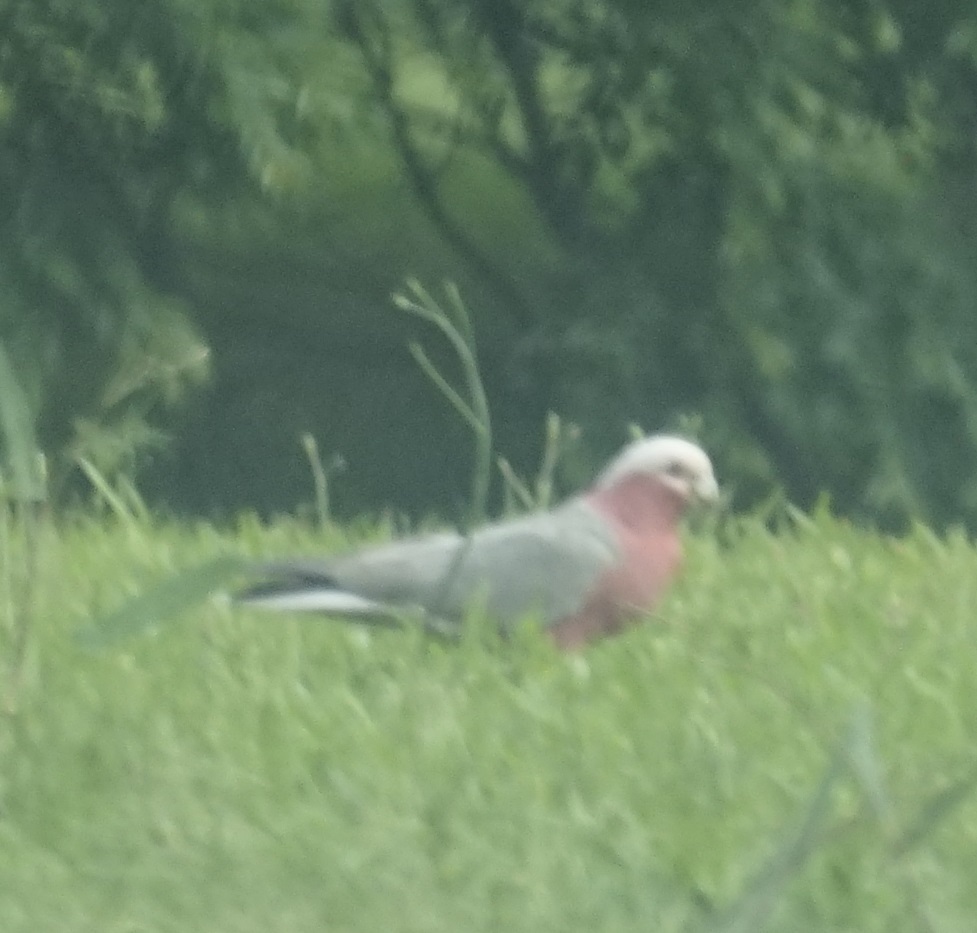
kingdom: Animalia
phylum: Chordata
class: Aves
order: Psittaciformes
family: Psittacidae
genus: Eolophus
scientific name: Eolophus roseicapilla
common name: Galah
